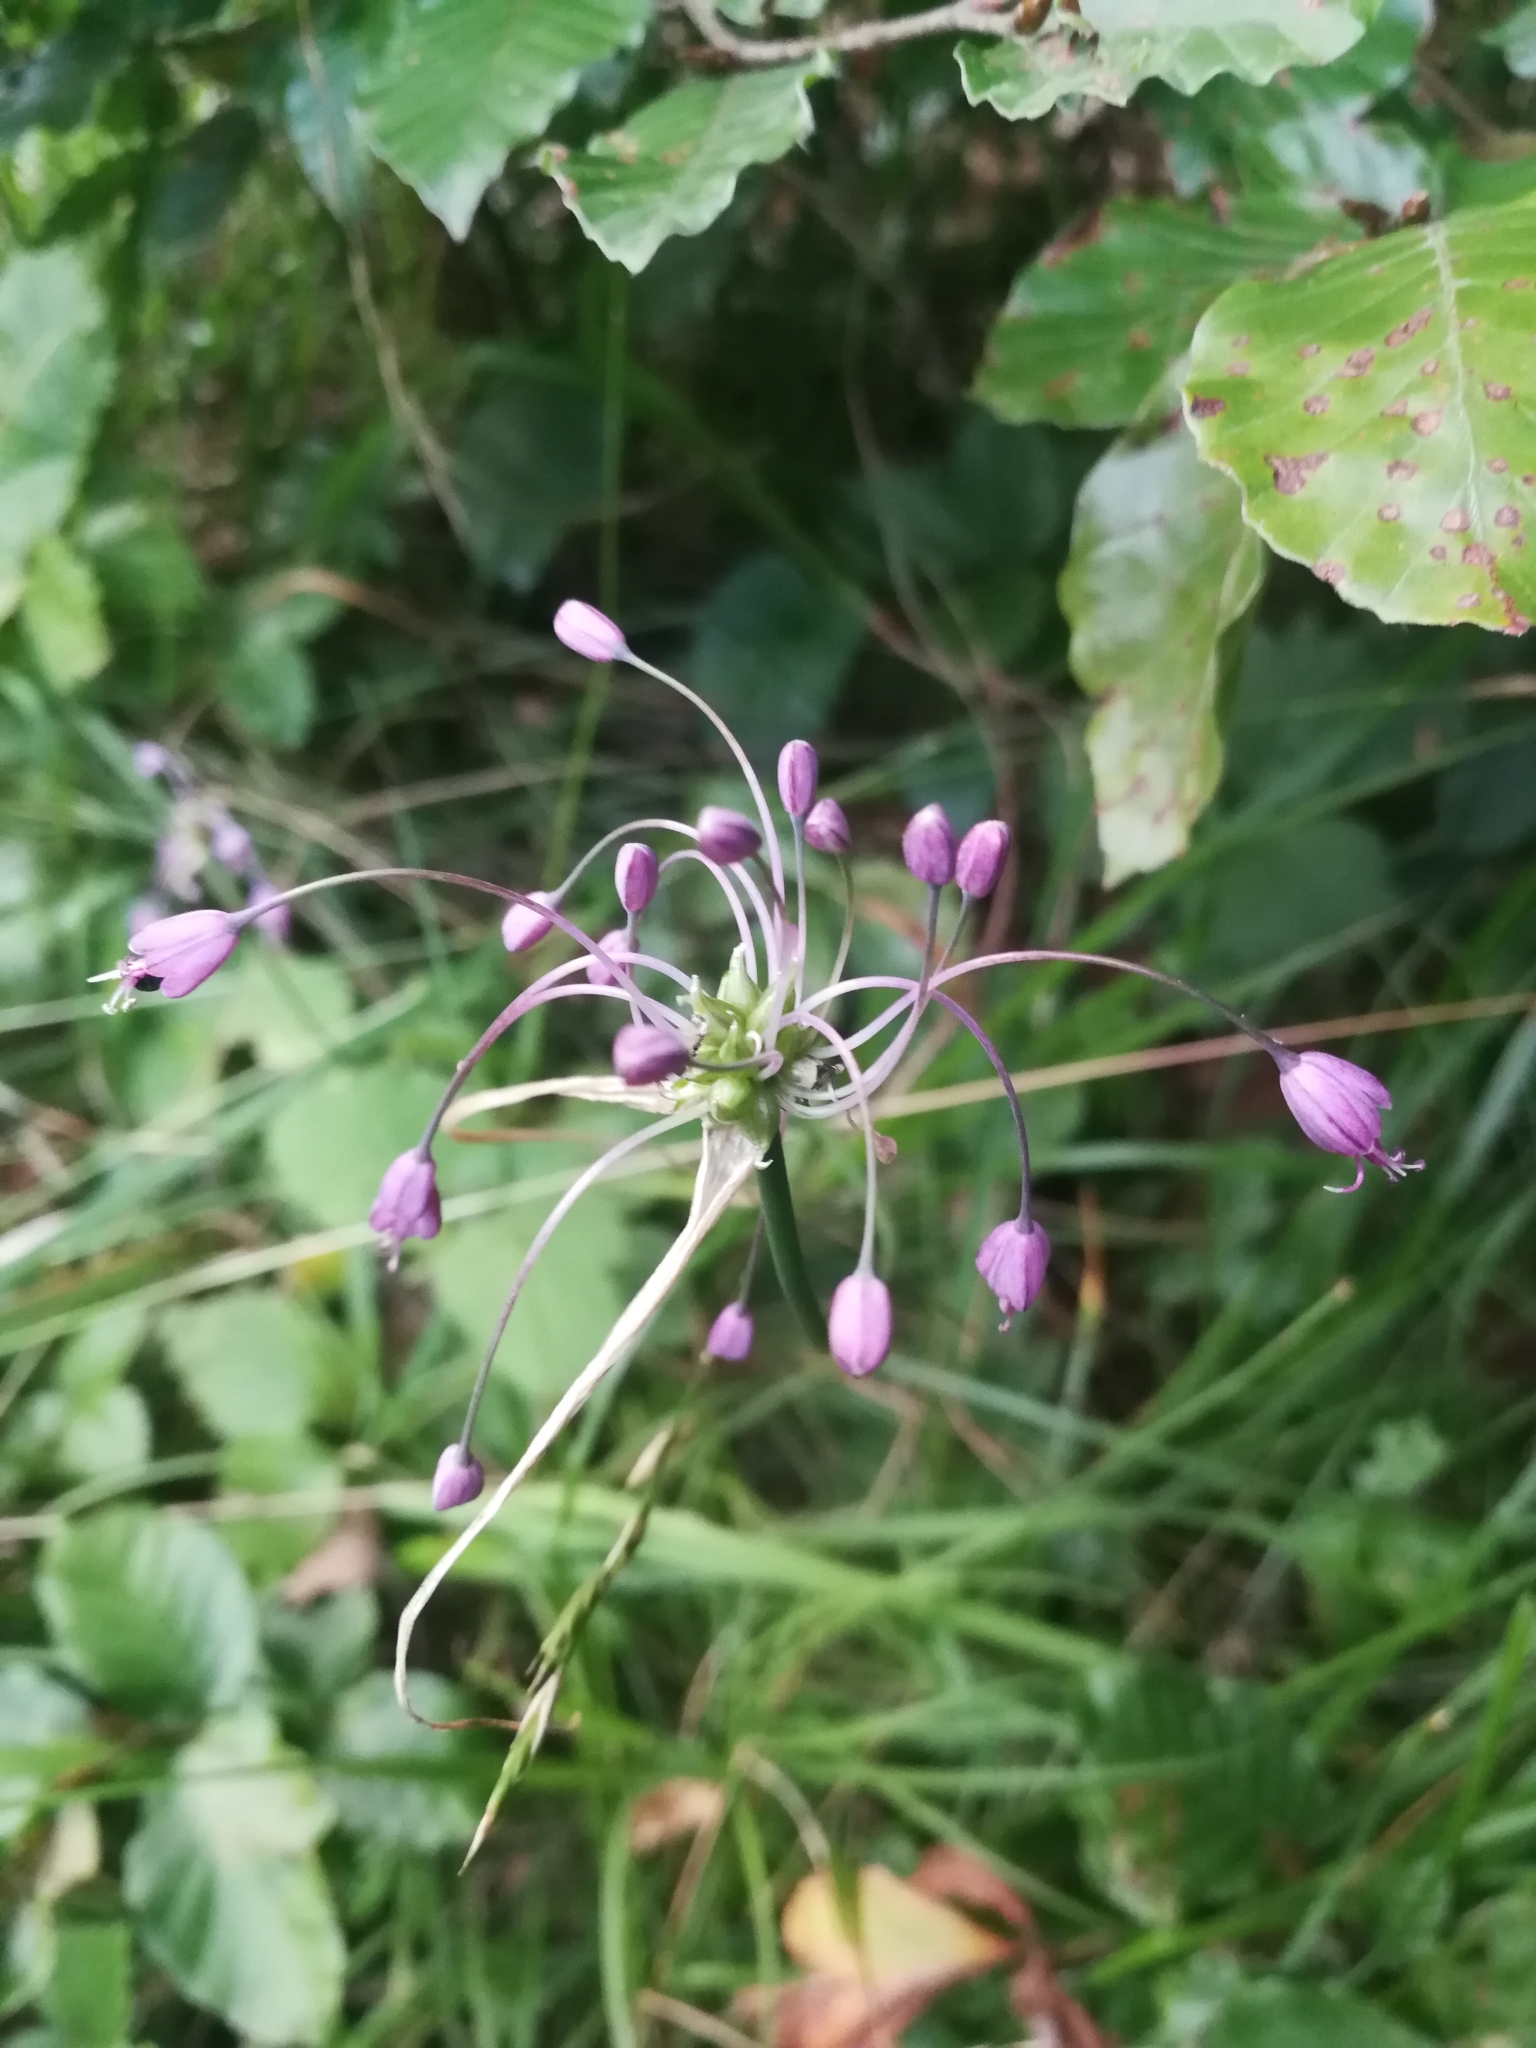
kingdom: Plantae
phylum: Tracheophyta
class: Liliopsida
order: Asparagales
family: Amaryllidaceae
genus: Allium
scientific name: Allium carinatum
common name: Keeled garlic
